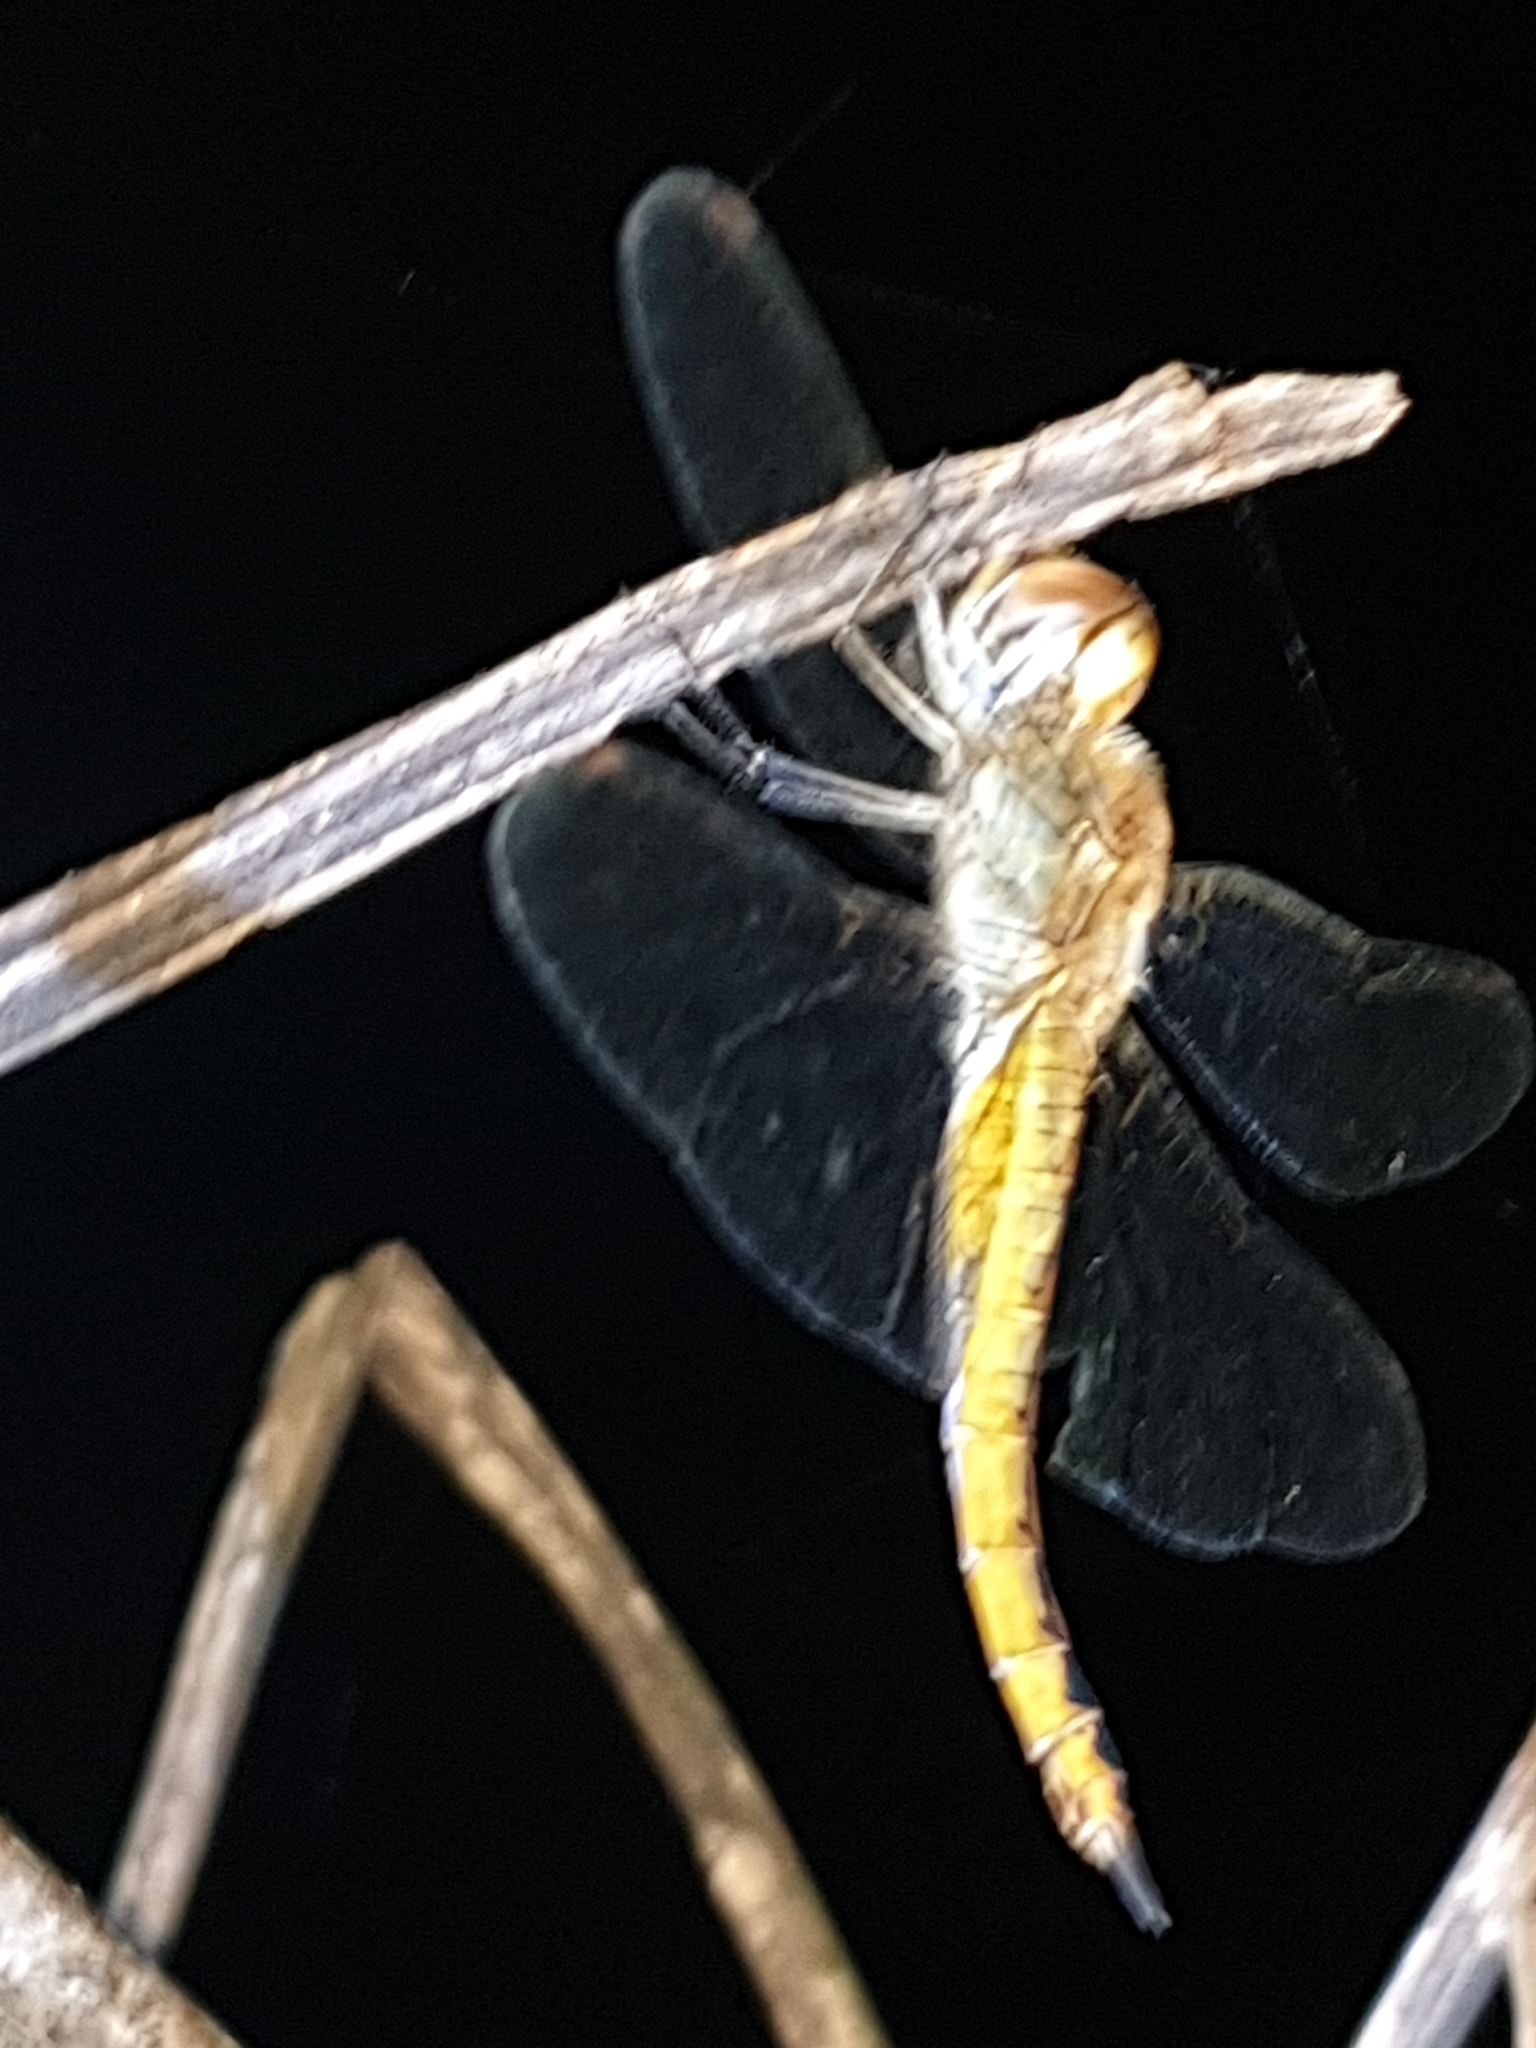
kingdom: Animalia
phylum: Arthropoda
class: Insecta
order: Odonata
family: Libellulidae
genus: Pantala
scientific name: Pantala flavescens
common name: Wandering glider
